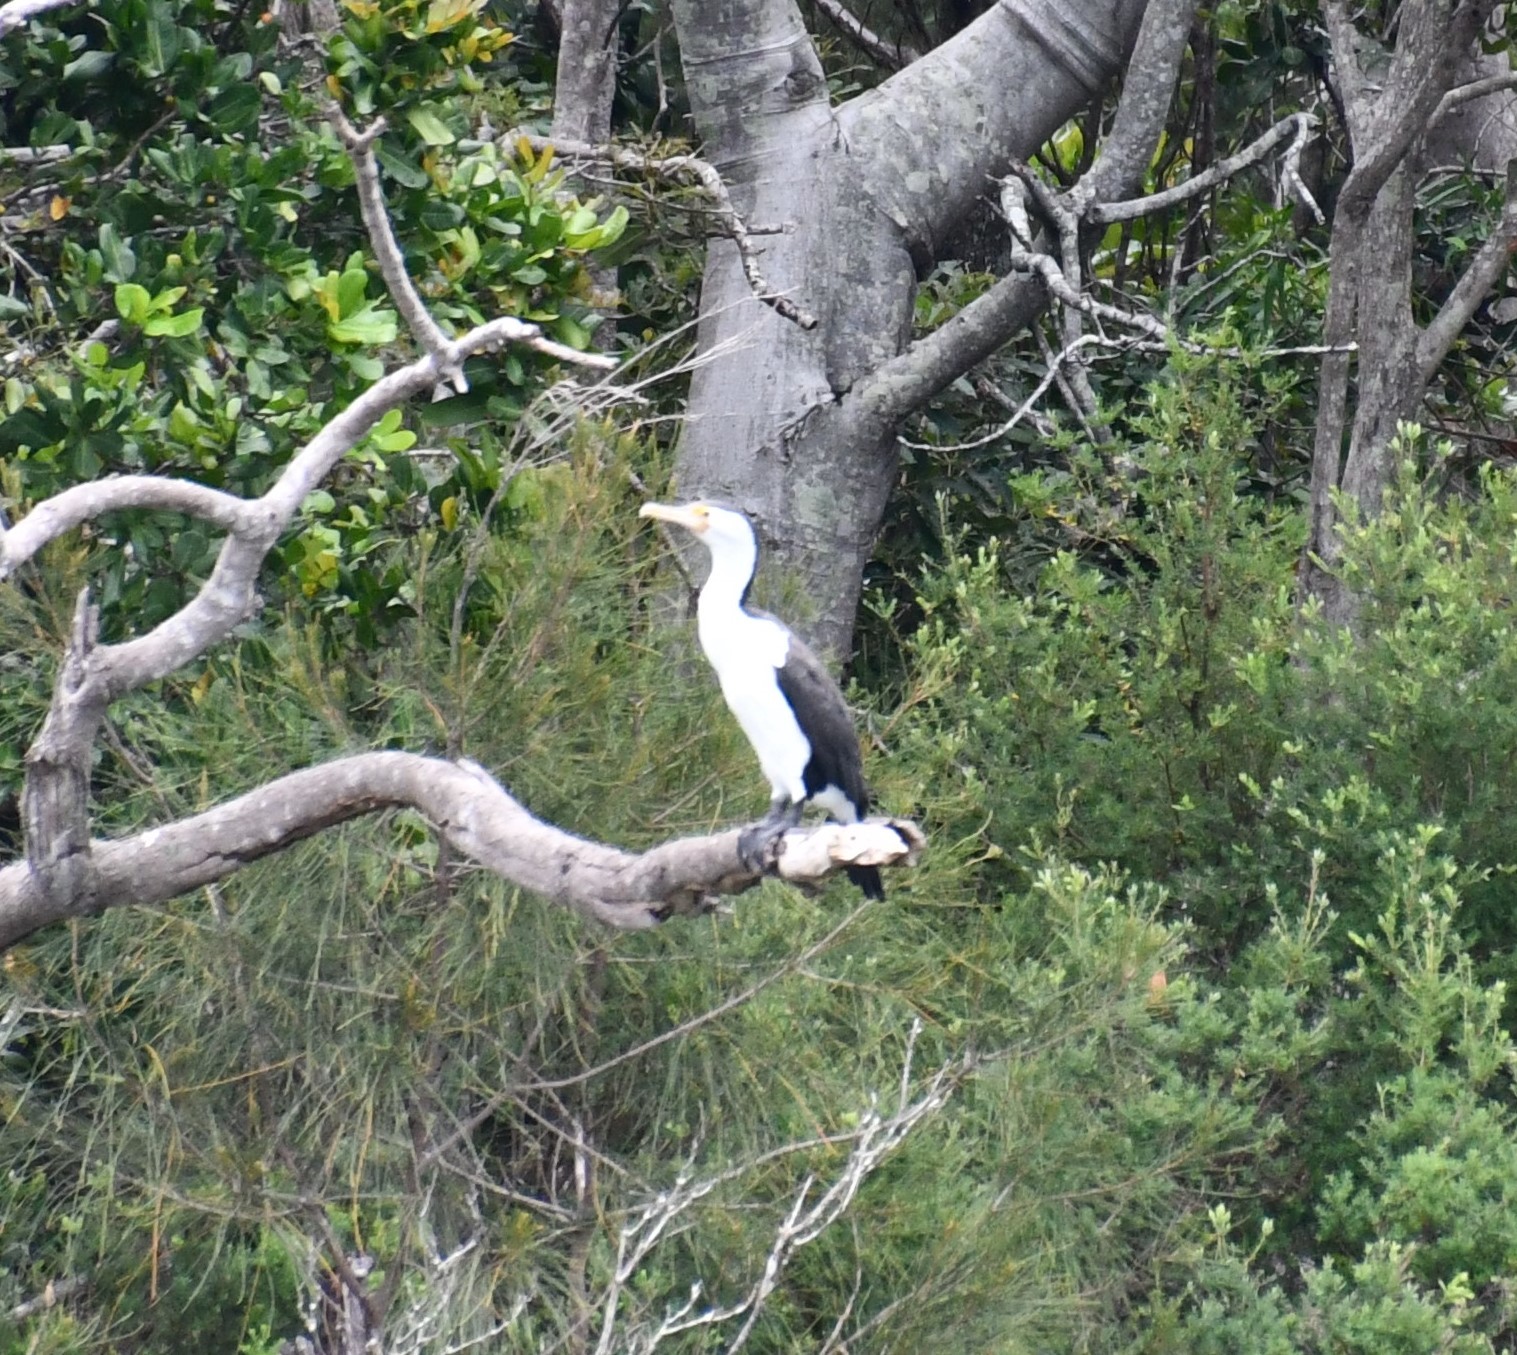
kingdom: Animalia
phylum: Chordata
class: Aves
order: Suliformes
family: Phalacrocoracidae
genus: Phalacrocorax
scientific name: Phalacrocorax varius
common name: Pied cormorant
